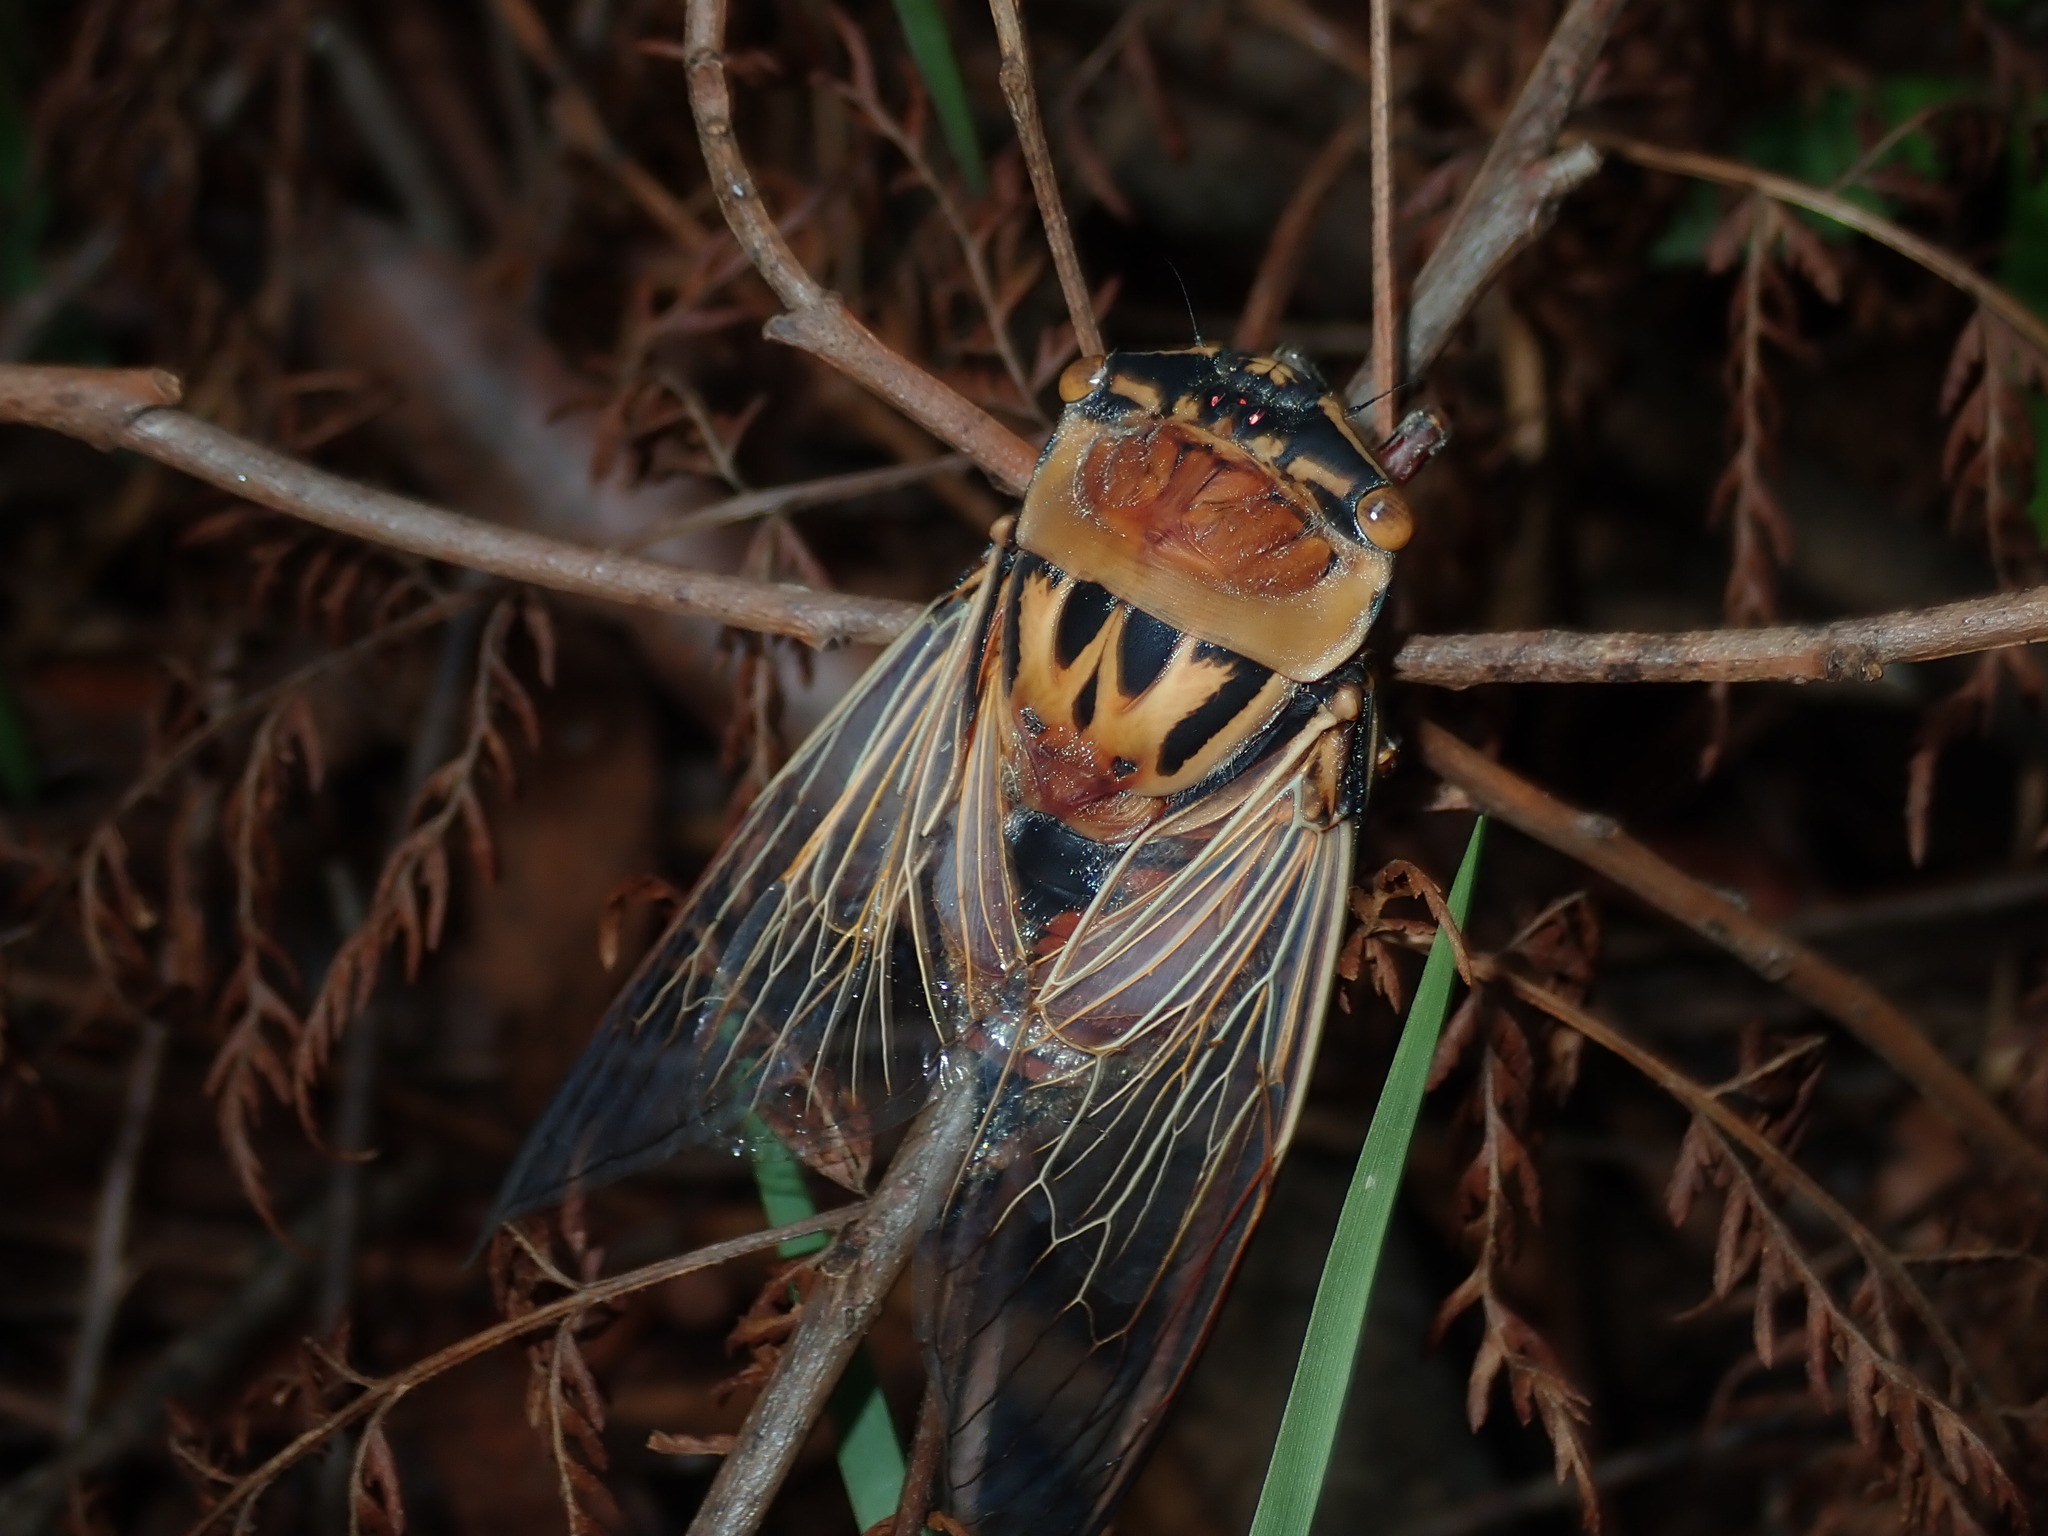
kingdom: Animalia
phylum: Arthropoda
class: Insecta
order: Hemiptera
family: Cicadidae
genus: Thopha
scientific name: Thopha saccata
